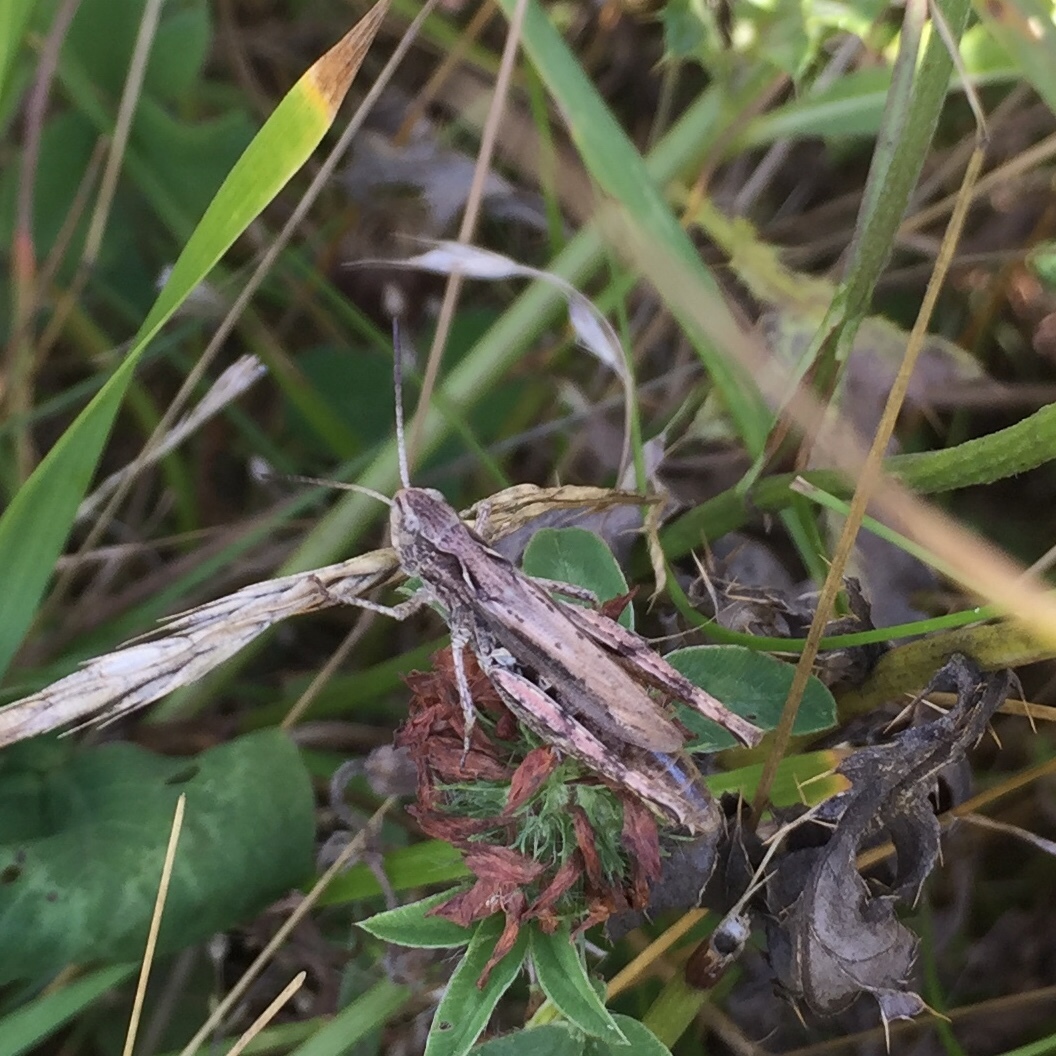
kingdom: Animalia
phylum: Arthropoda
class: Insecta
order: Orthoptera
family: Acrididae
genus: Chorthippus
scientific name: Chorthippus apricarius
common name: Upland field grasshopper
